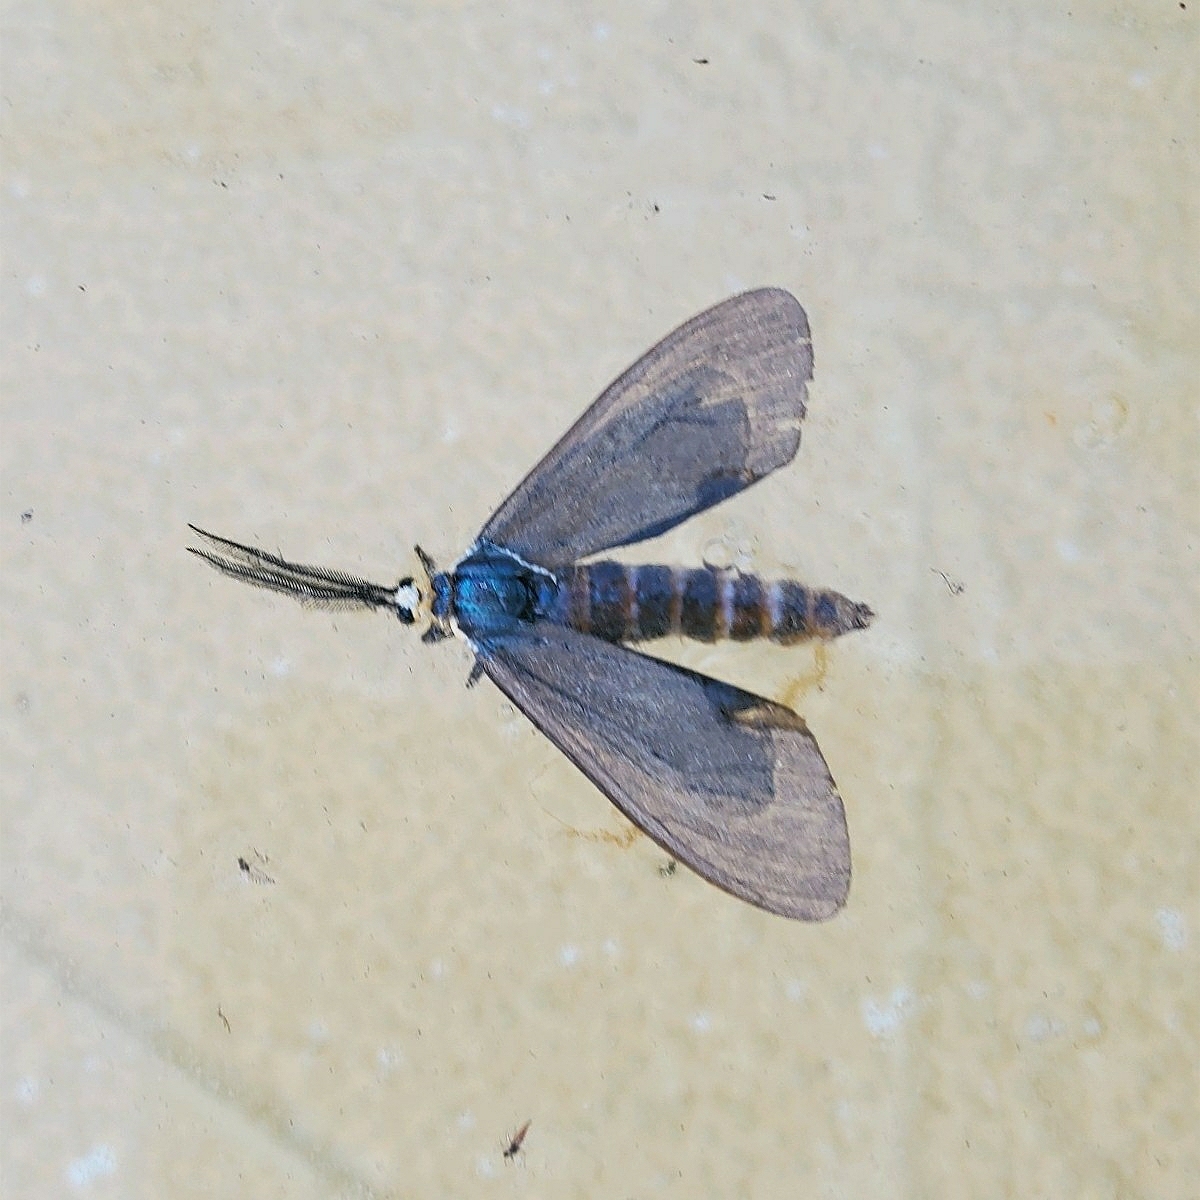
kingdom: Animalia
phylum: Arthropoda
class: Insecta
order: Lepidoptera
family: Erebidae
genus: Ctenucha
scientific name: Ctenucha virginica
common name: Virginia ctenucha moth
